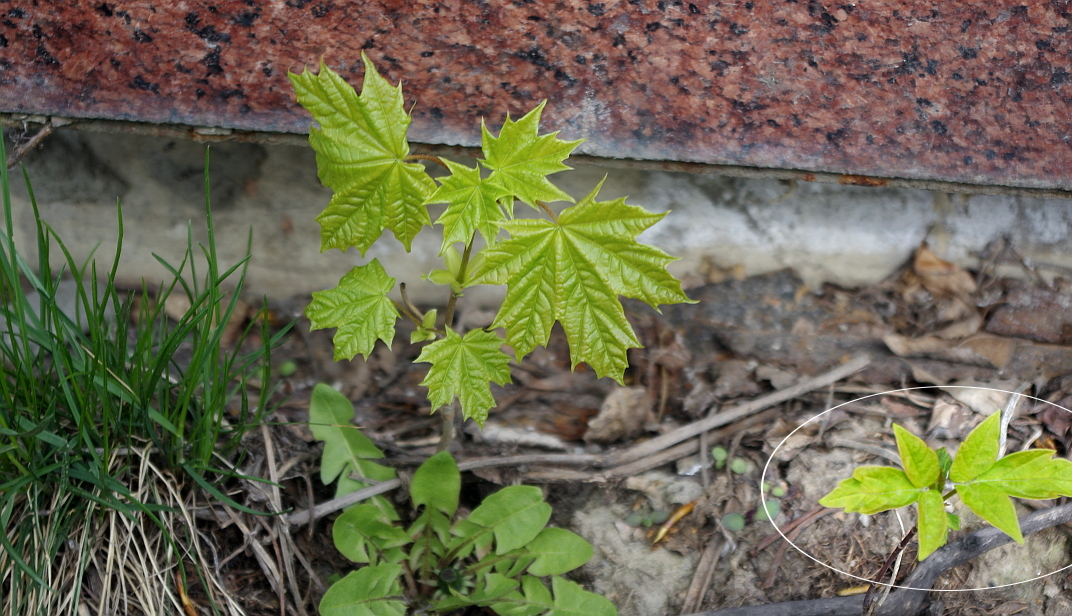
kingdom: Plantae
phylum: Tracheophyta
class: Magnoliopsida
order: Sapindales
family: Sapindaceae
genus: Acer
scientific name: Acer negundo
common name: Ashleaf maple
